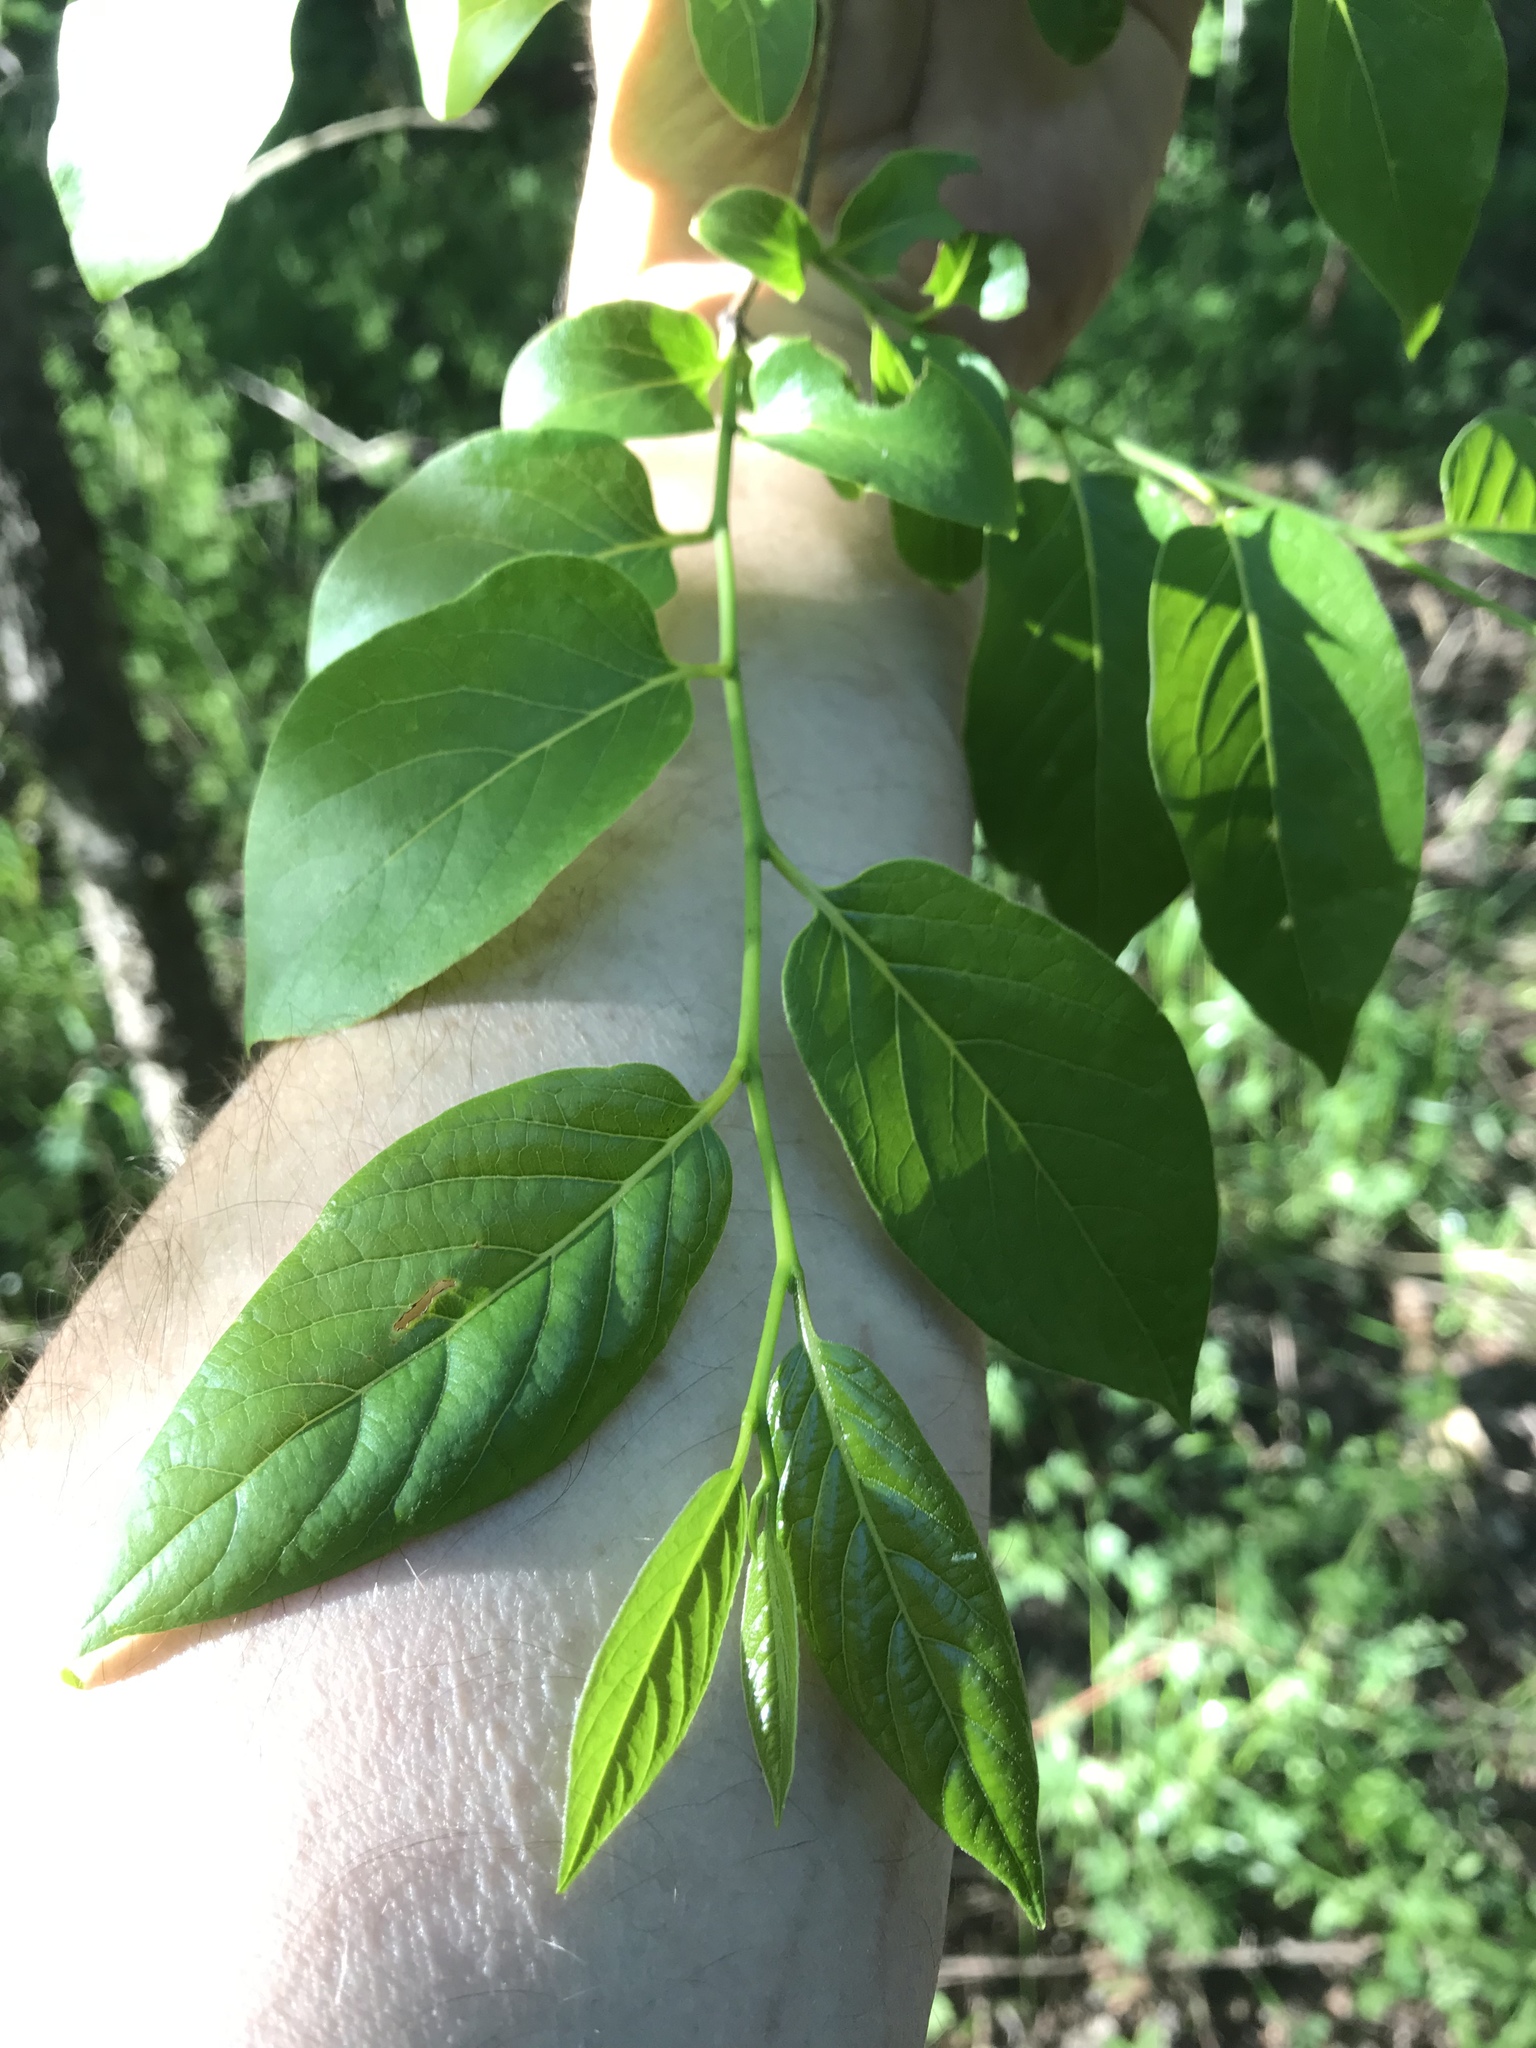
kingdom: Plantae
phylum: Tracheophyta
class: Magnoliopsida
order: Ericales
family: Ebenaceae
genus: Diospyros
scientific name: Diospyros virginiana
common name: Persimmon
